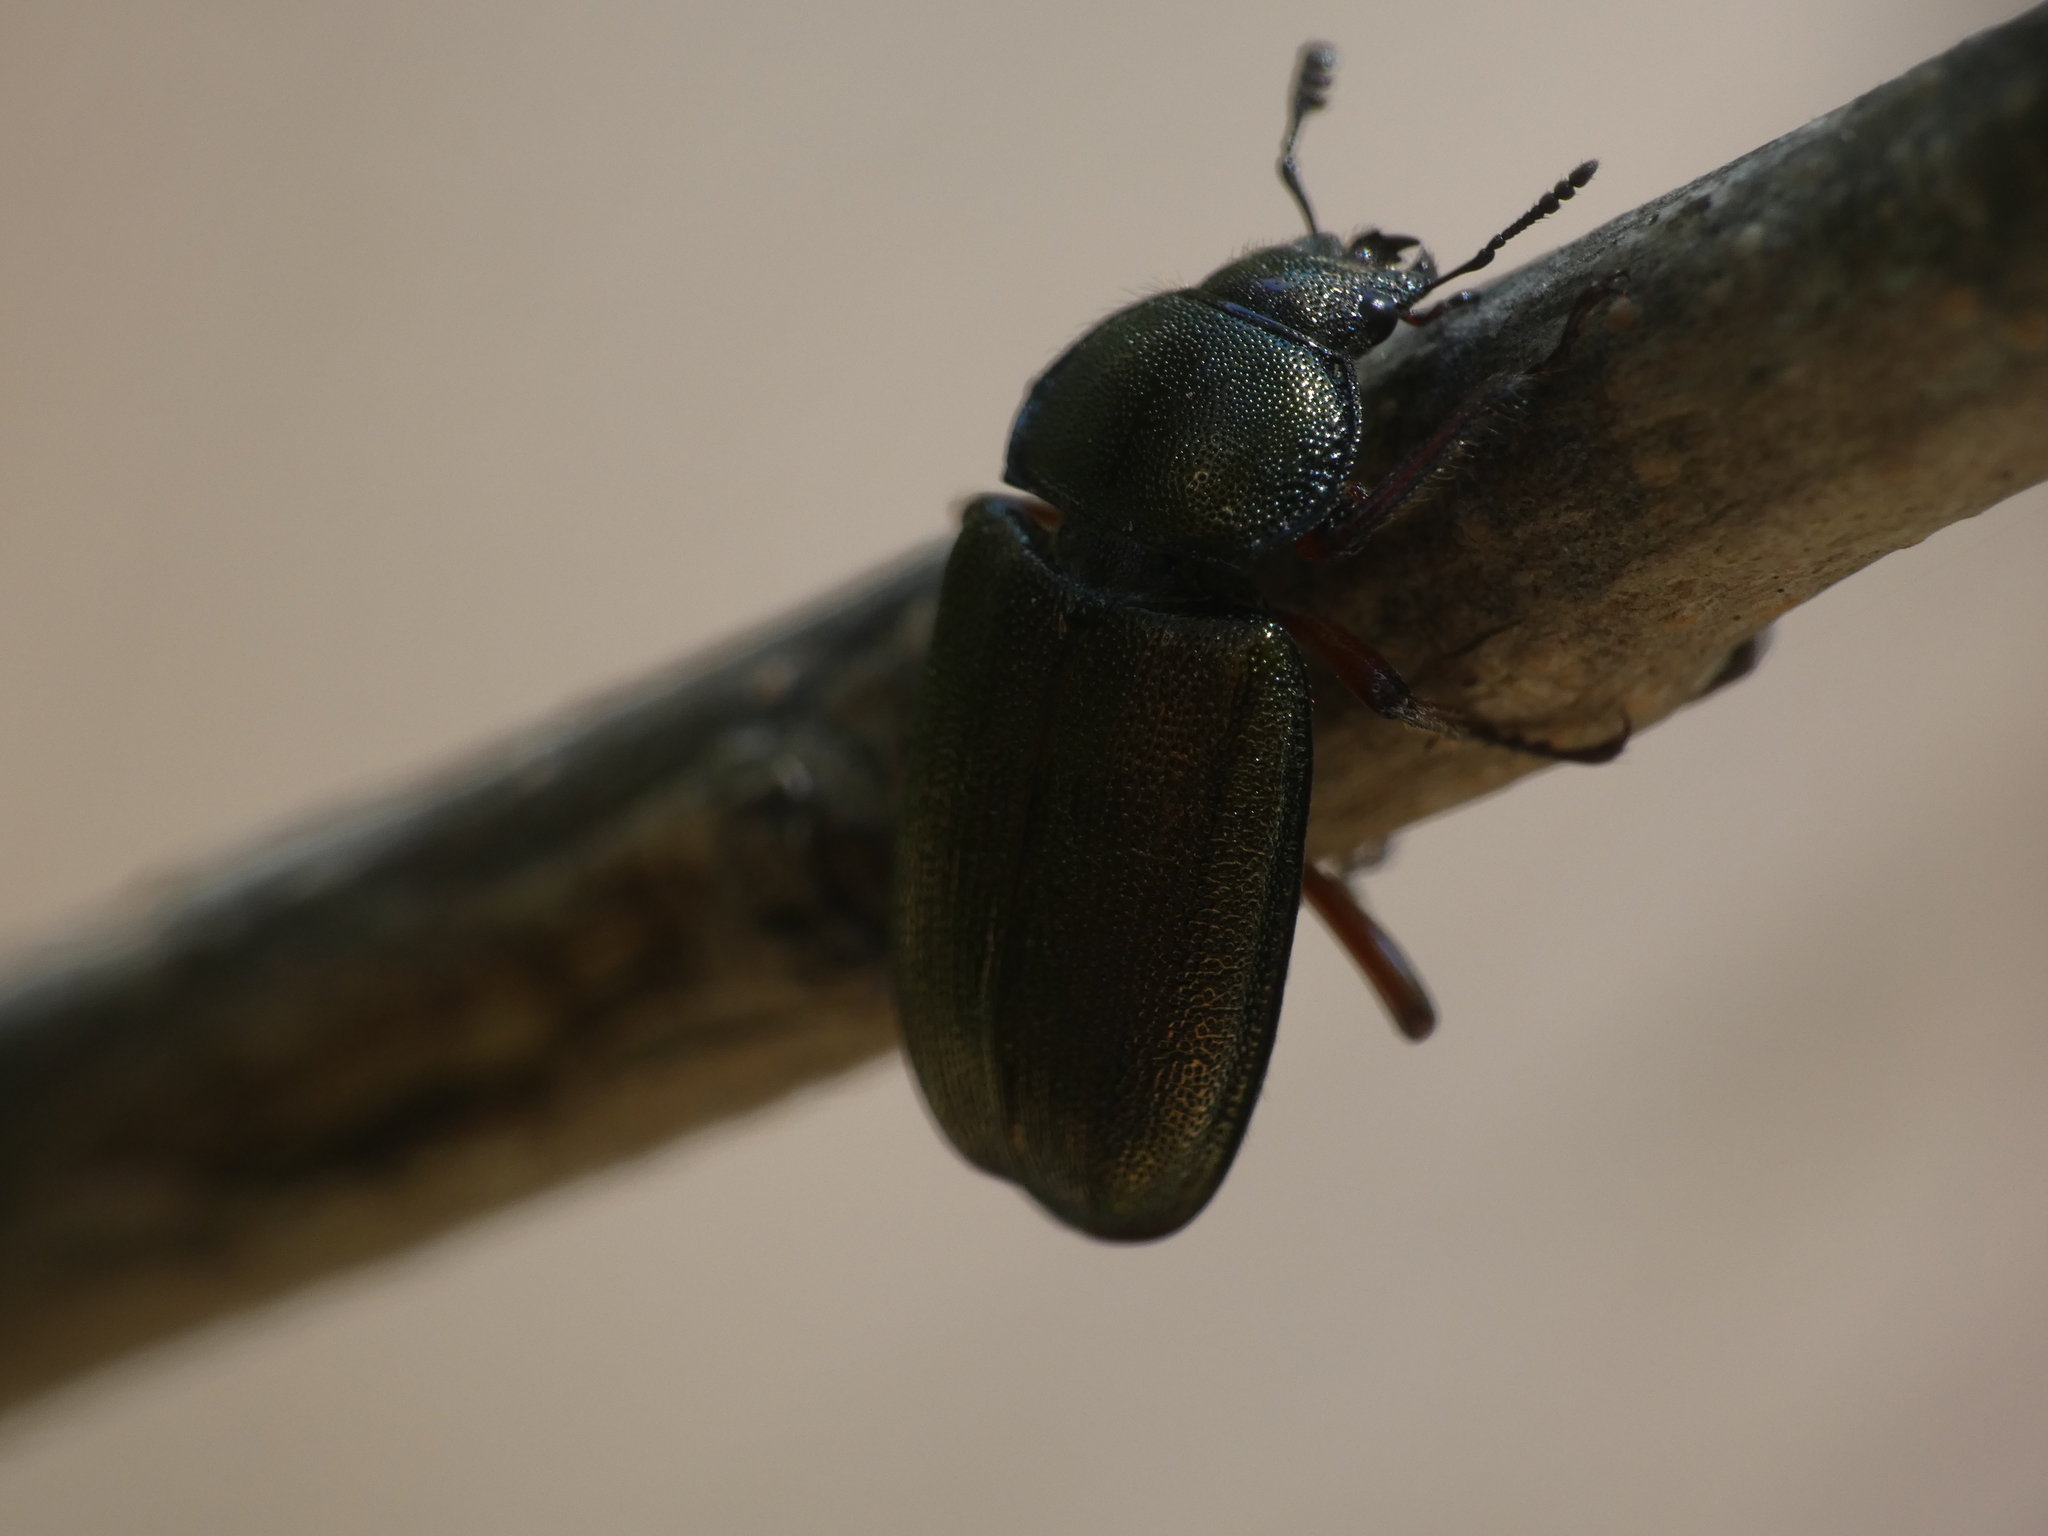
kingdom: Animalia
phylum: Arthropoda
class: Insecta
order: Coleoptera
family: Lucanidae
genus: Platycerus
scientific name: Platycerus caraboides
